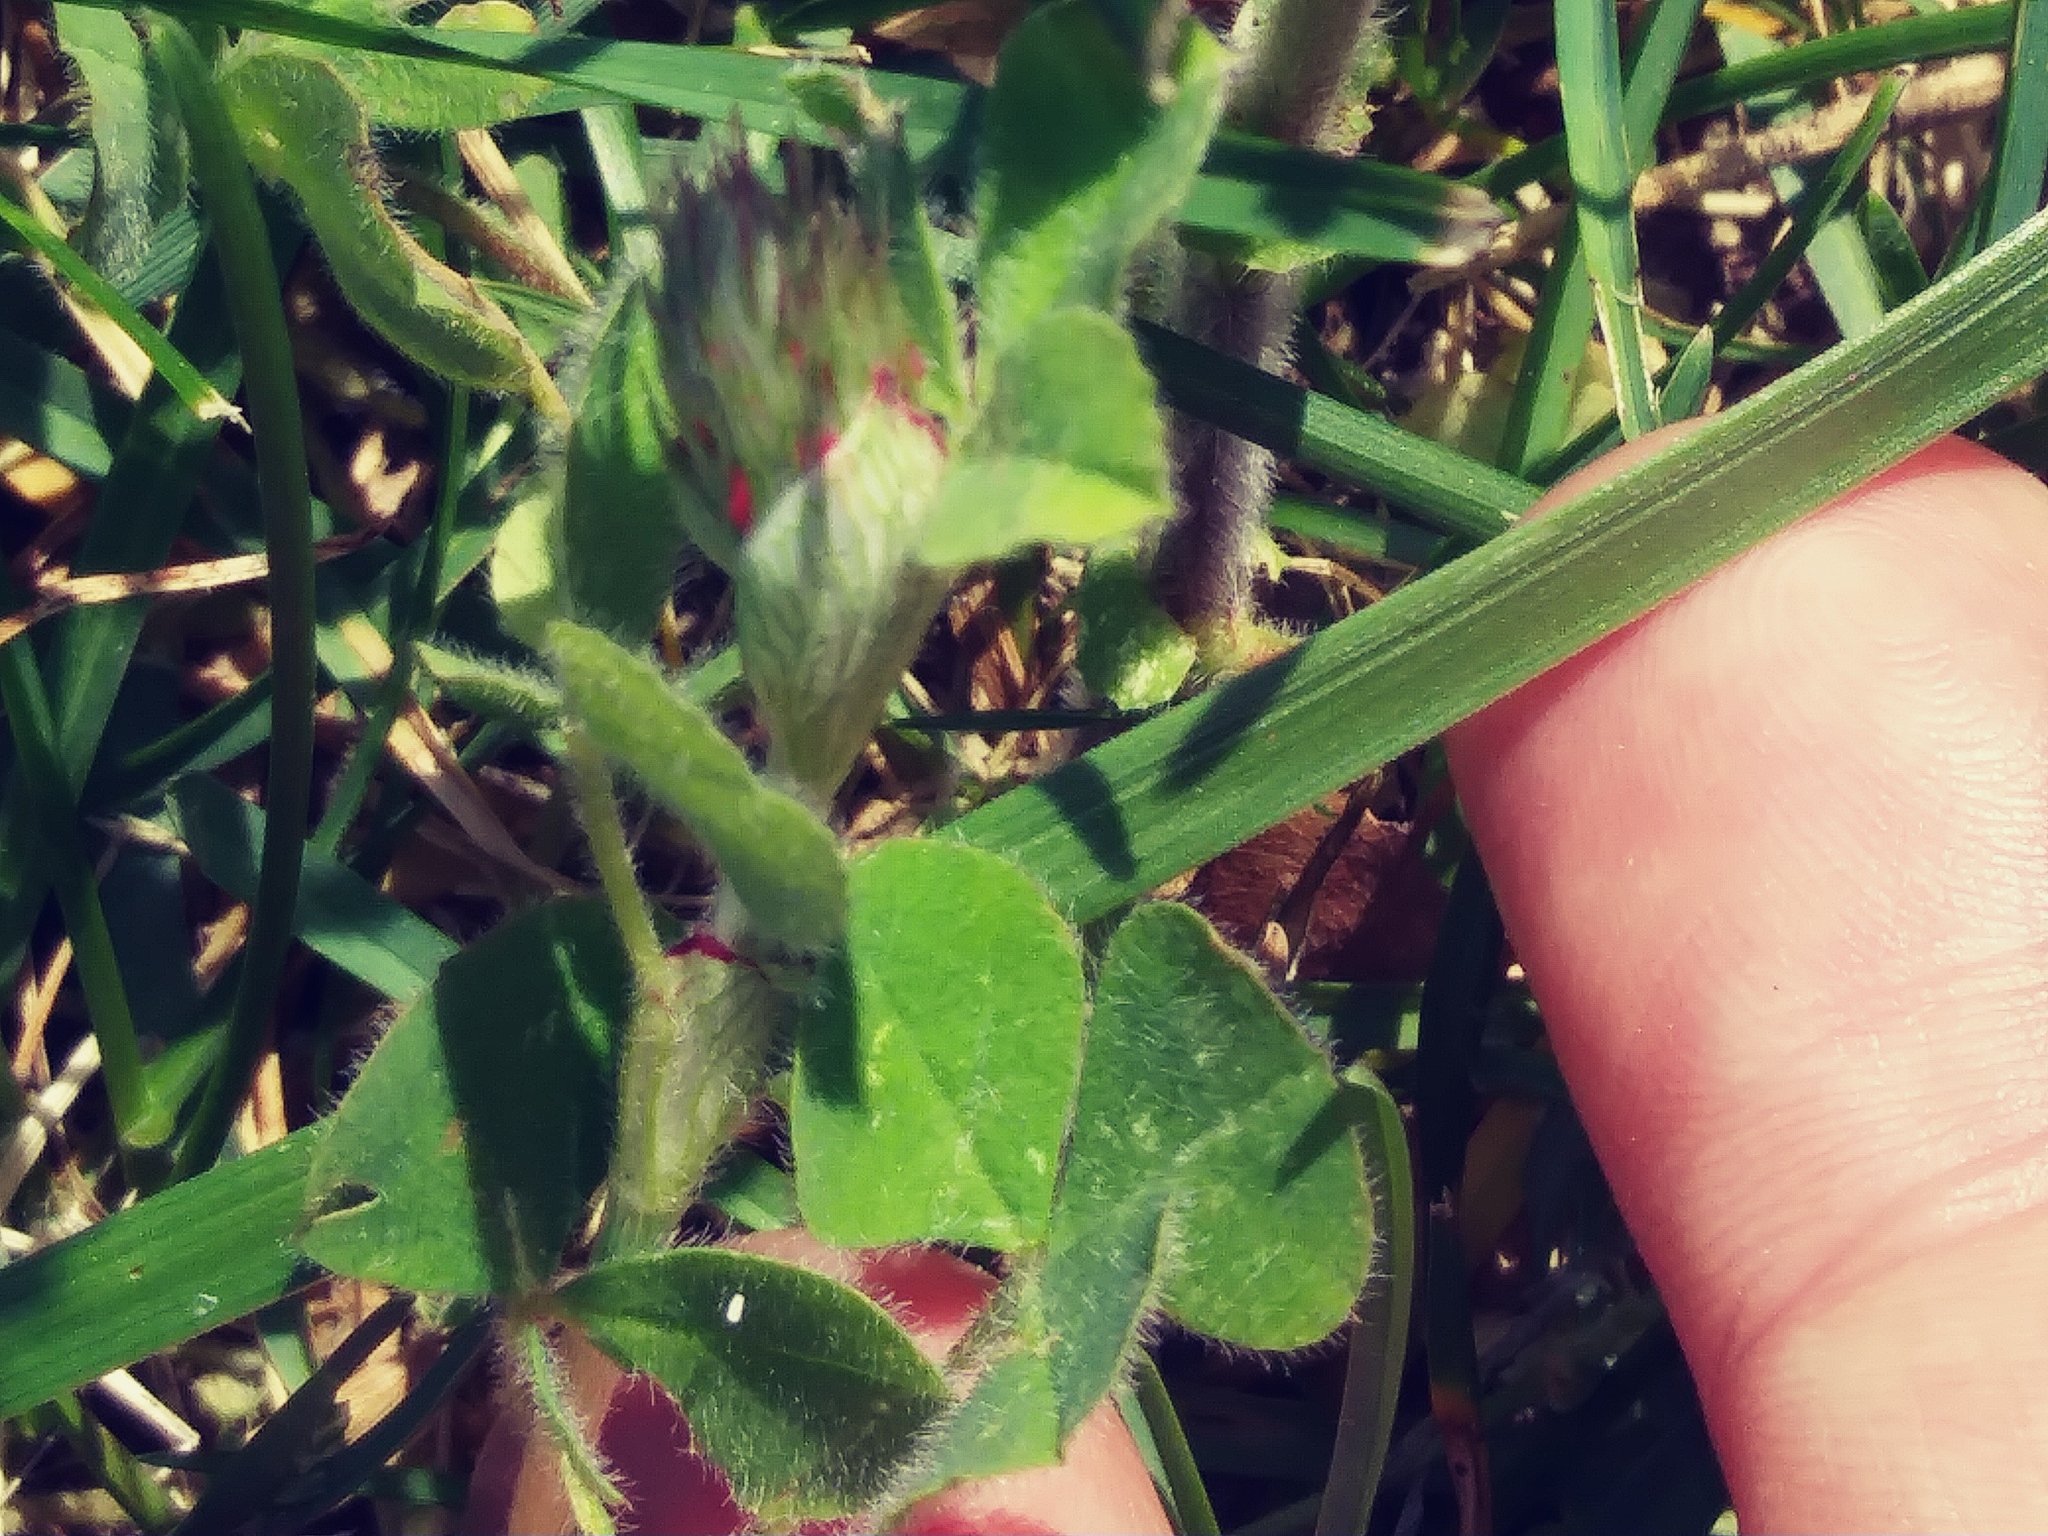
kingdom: Plantae
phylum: Tracheophyta
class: Magnoliopsida
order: Fabales
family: Fabaceae
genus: Trifolium
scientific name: Trifolium incarnatum
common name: Crimson clover
